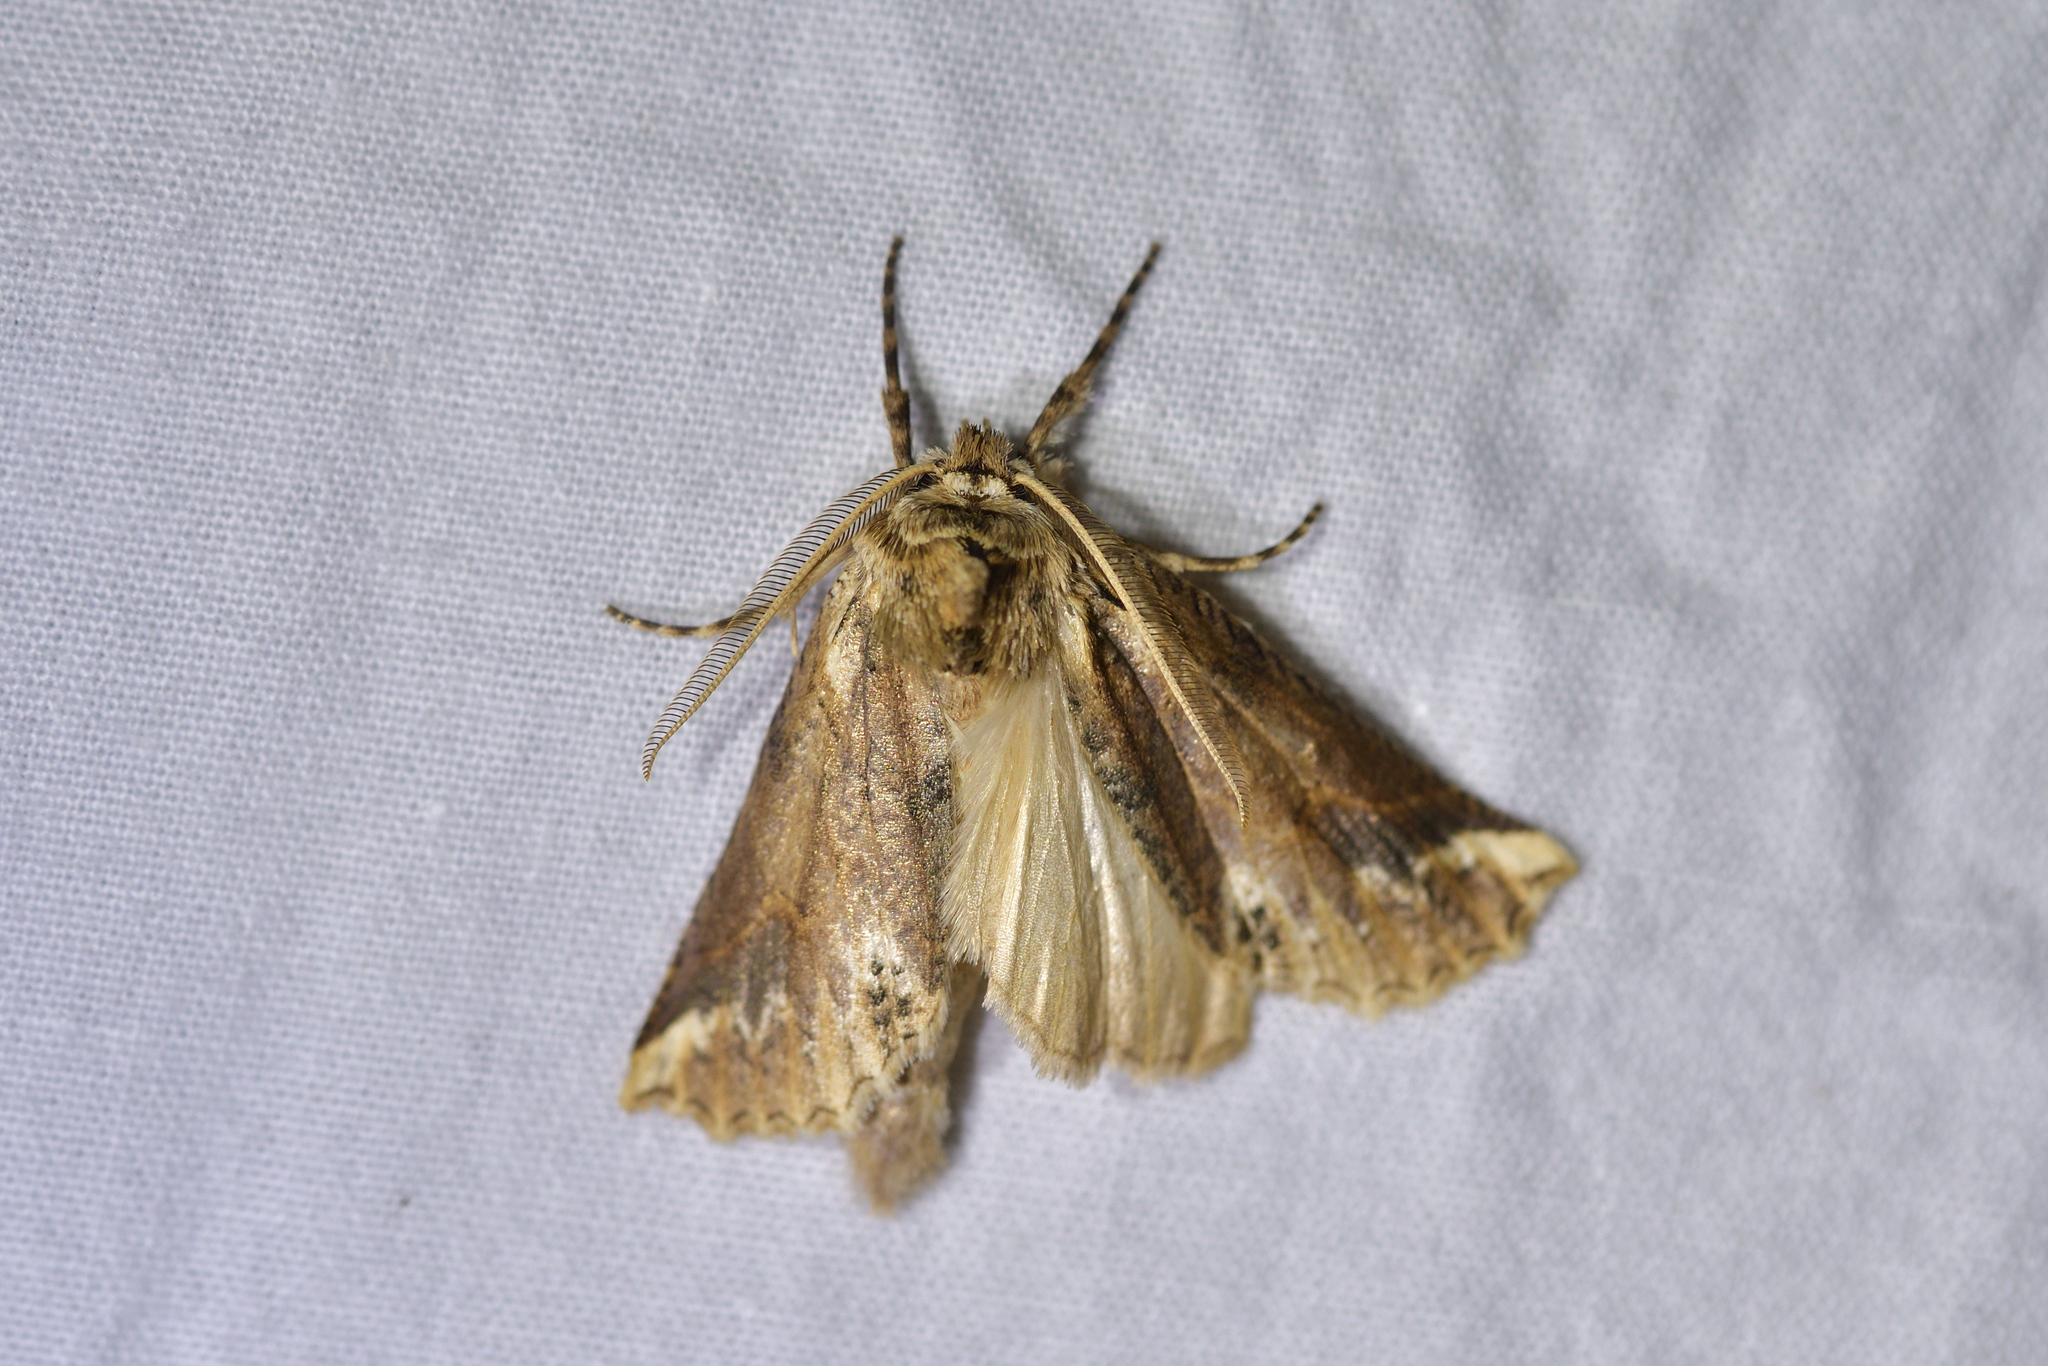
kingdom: Animalia
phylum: Arthropoda
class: Insecta
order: Lepidoptera
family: Geometridae
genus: Declana
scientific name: Declana
